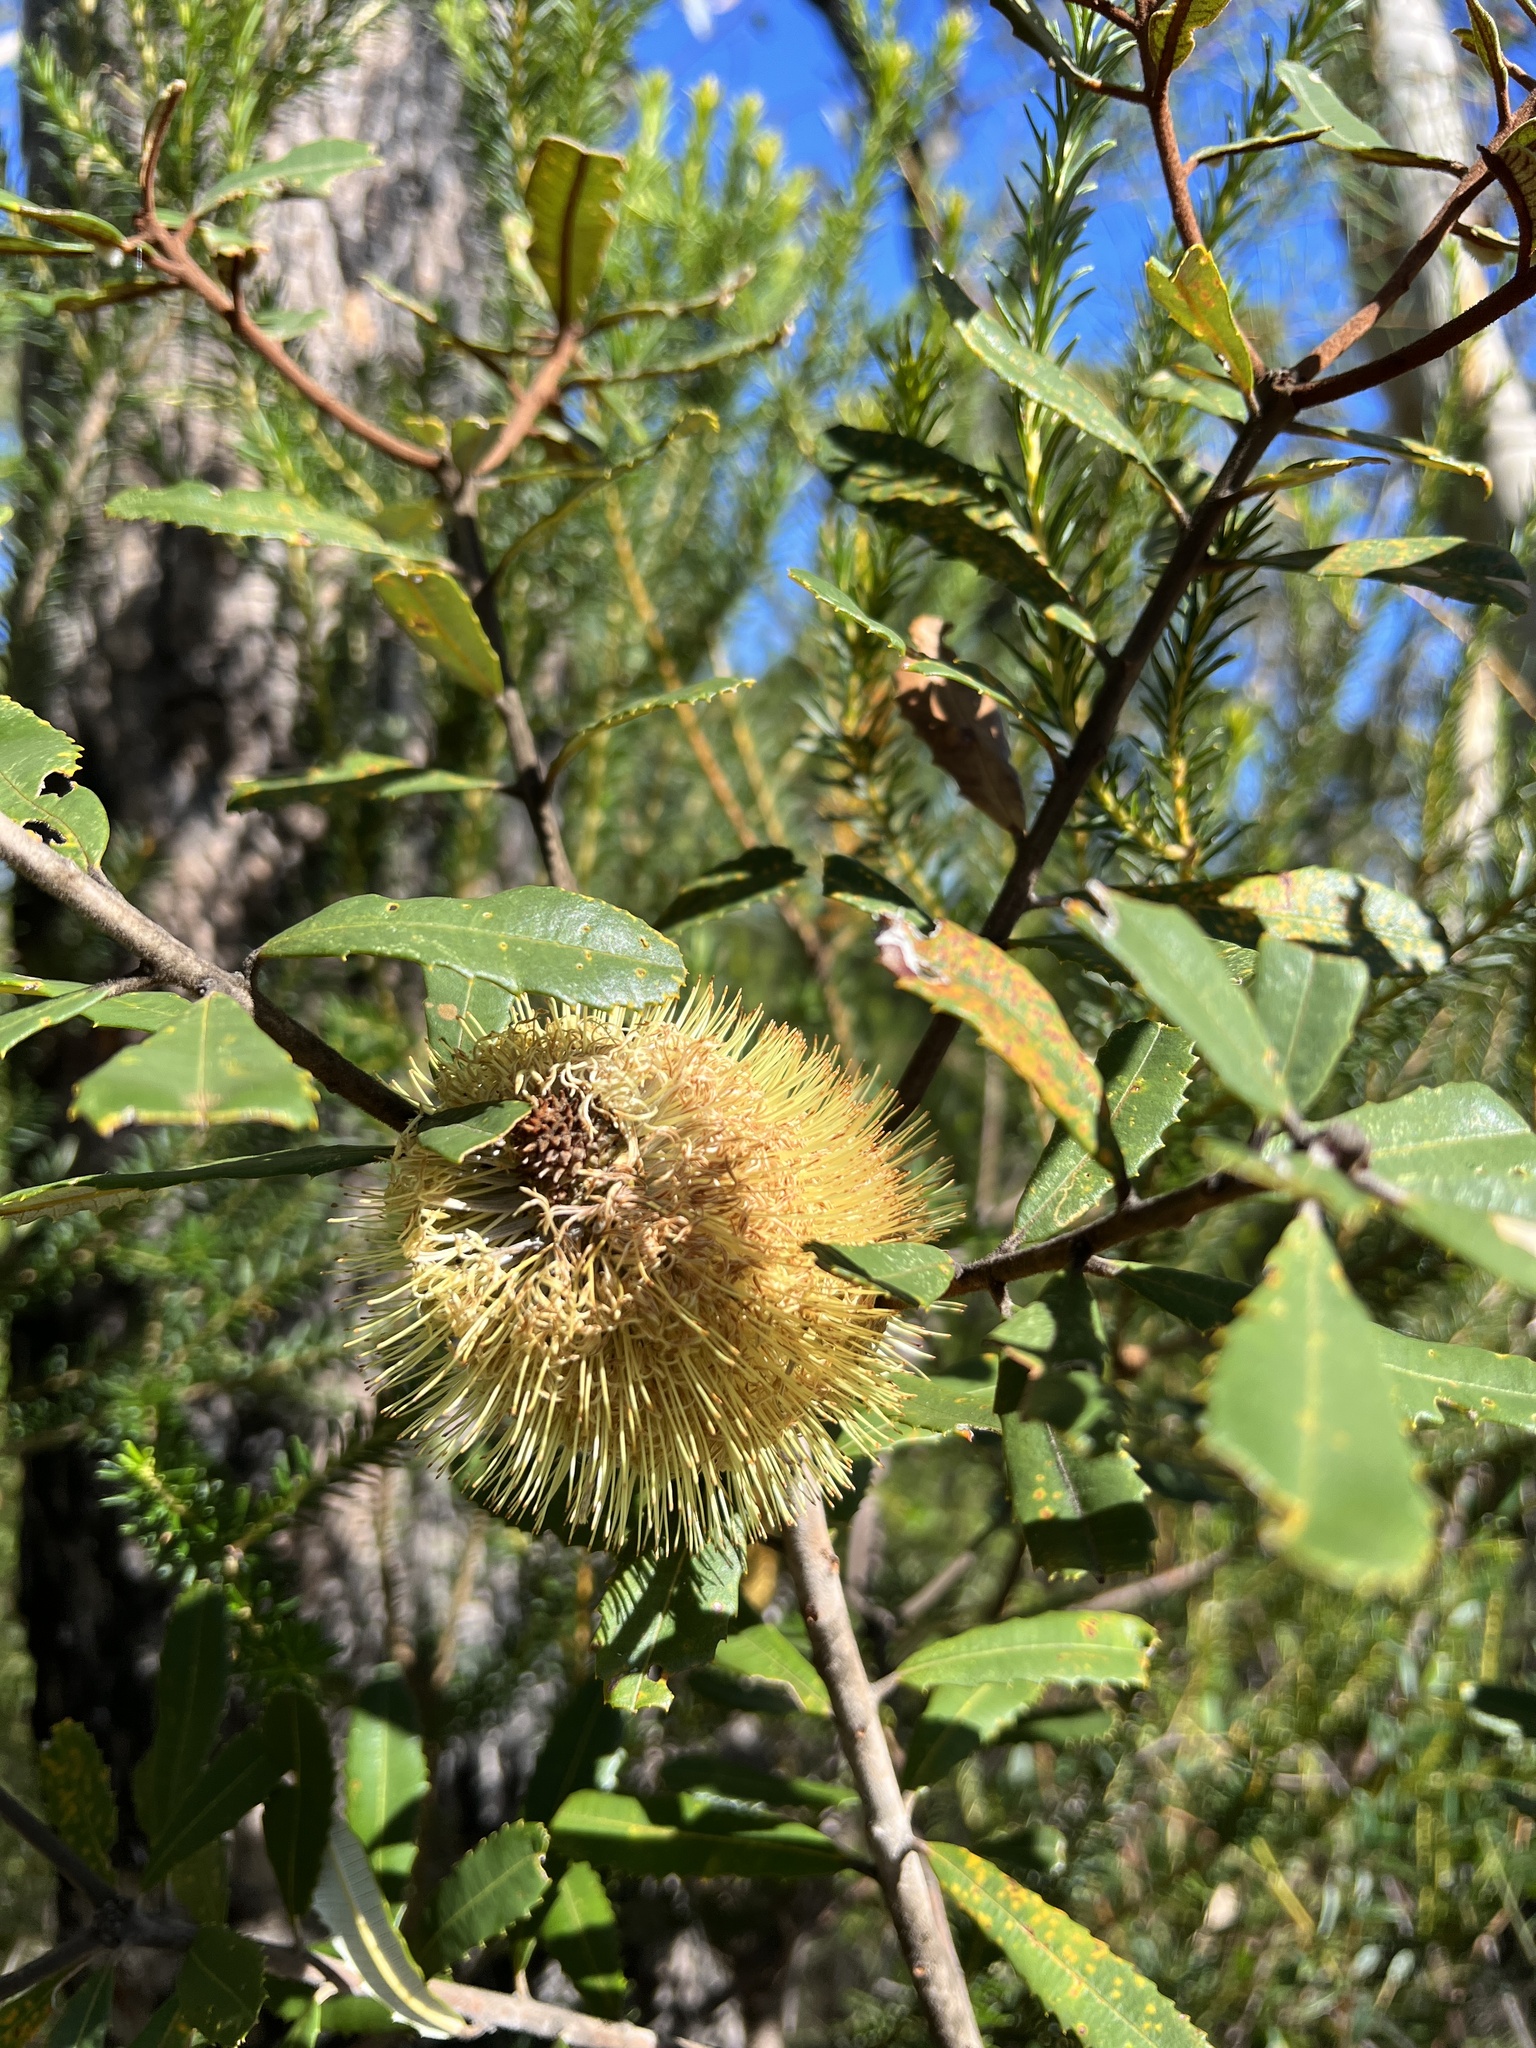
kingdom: Plantae
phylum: Tracheophyta
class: Magnoliopsida
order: Proteales
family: Proteaceae
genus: Banksia
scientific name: Banksia marginata
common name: Silver banksia
